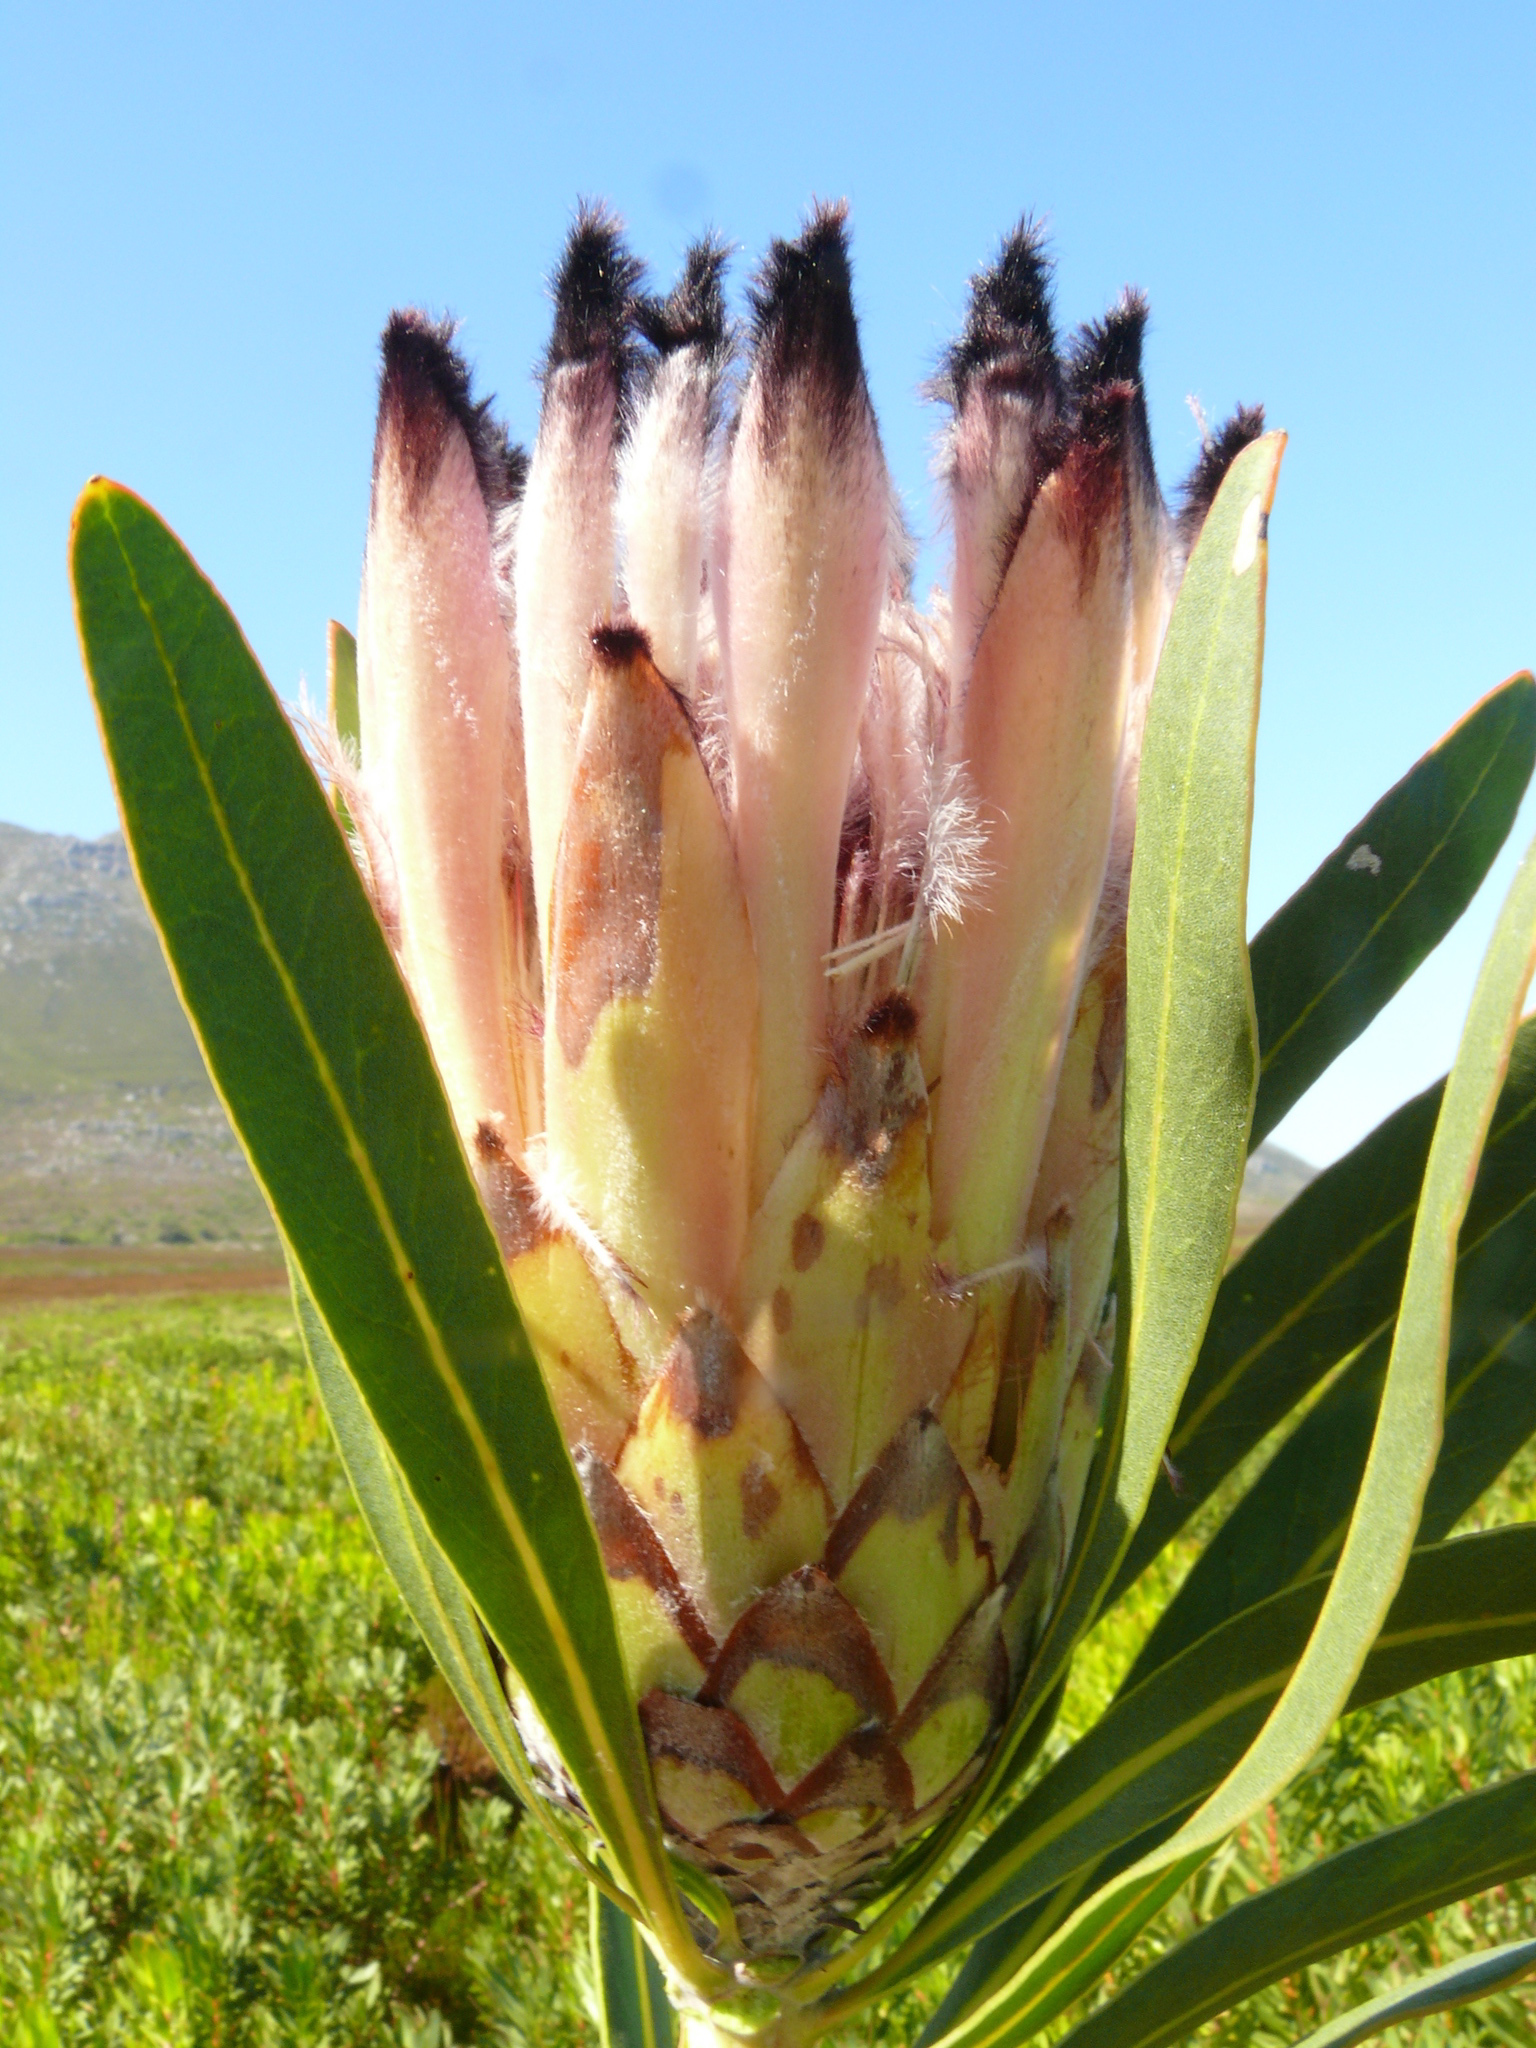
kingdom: Plantae
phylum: Tracheophyta
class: Magnoliopsida
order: Proteales
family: Proteaceae
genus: Protea
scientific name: Protea
